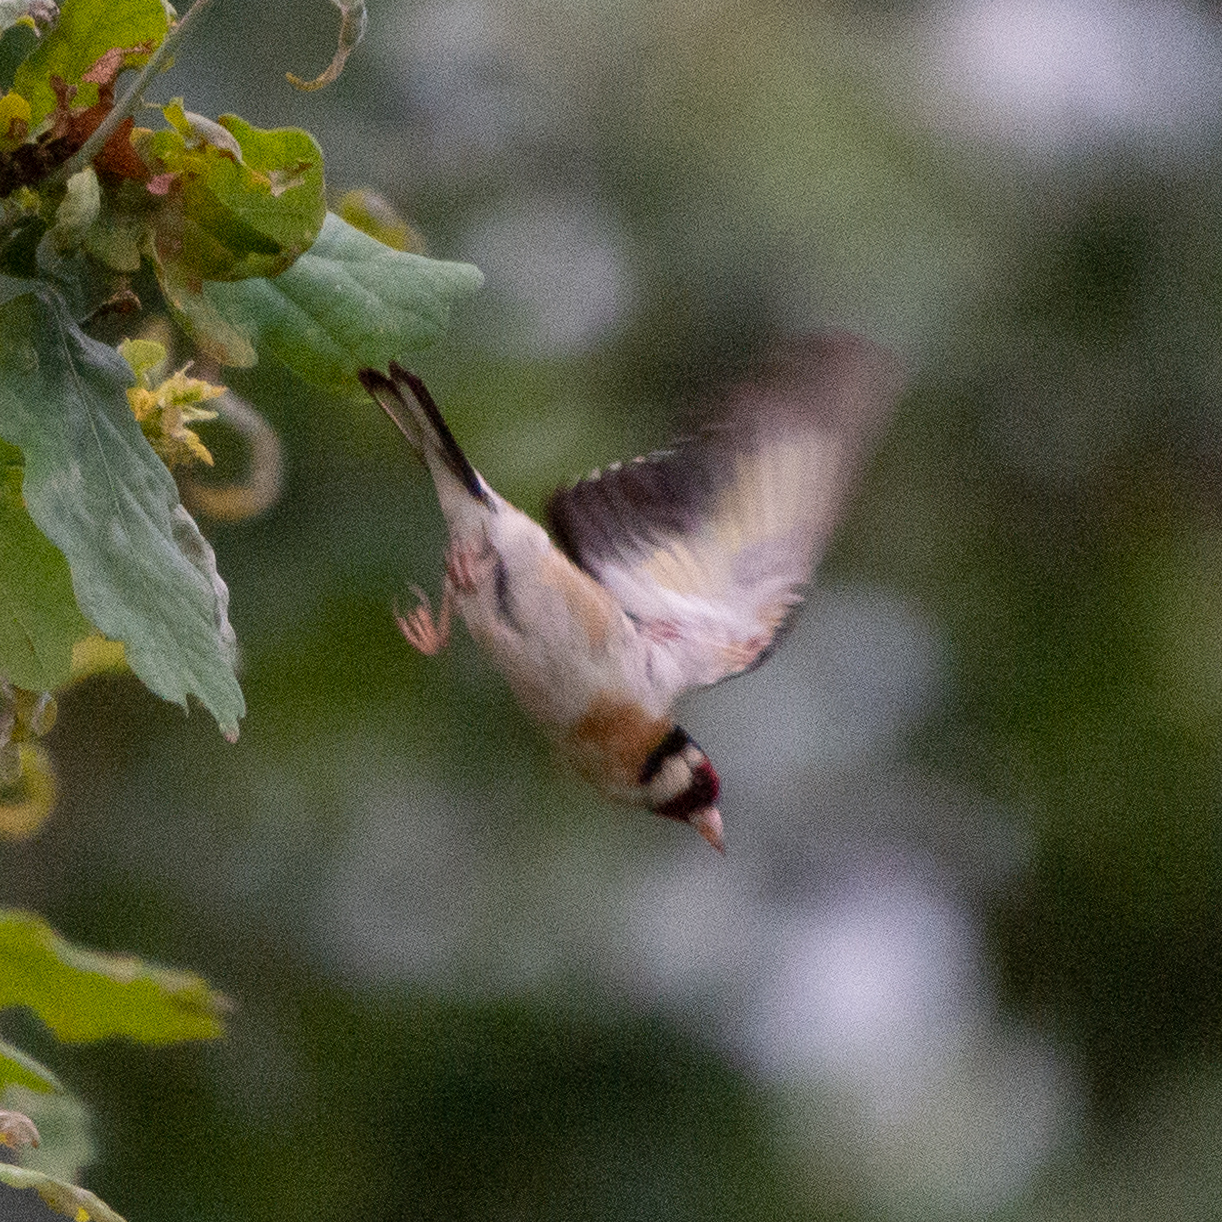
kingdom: Animalia
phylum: Chordata
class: Aves
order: Passeriformes
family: Fringillidae
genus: Carduelis
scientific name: Carduelis carduelis
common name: European goldfinch
